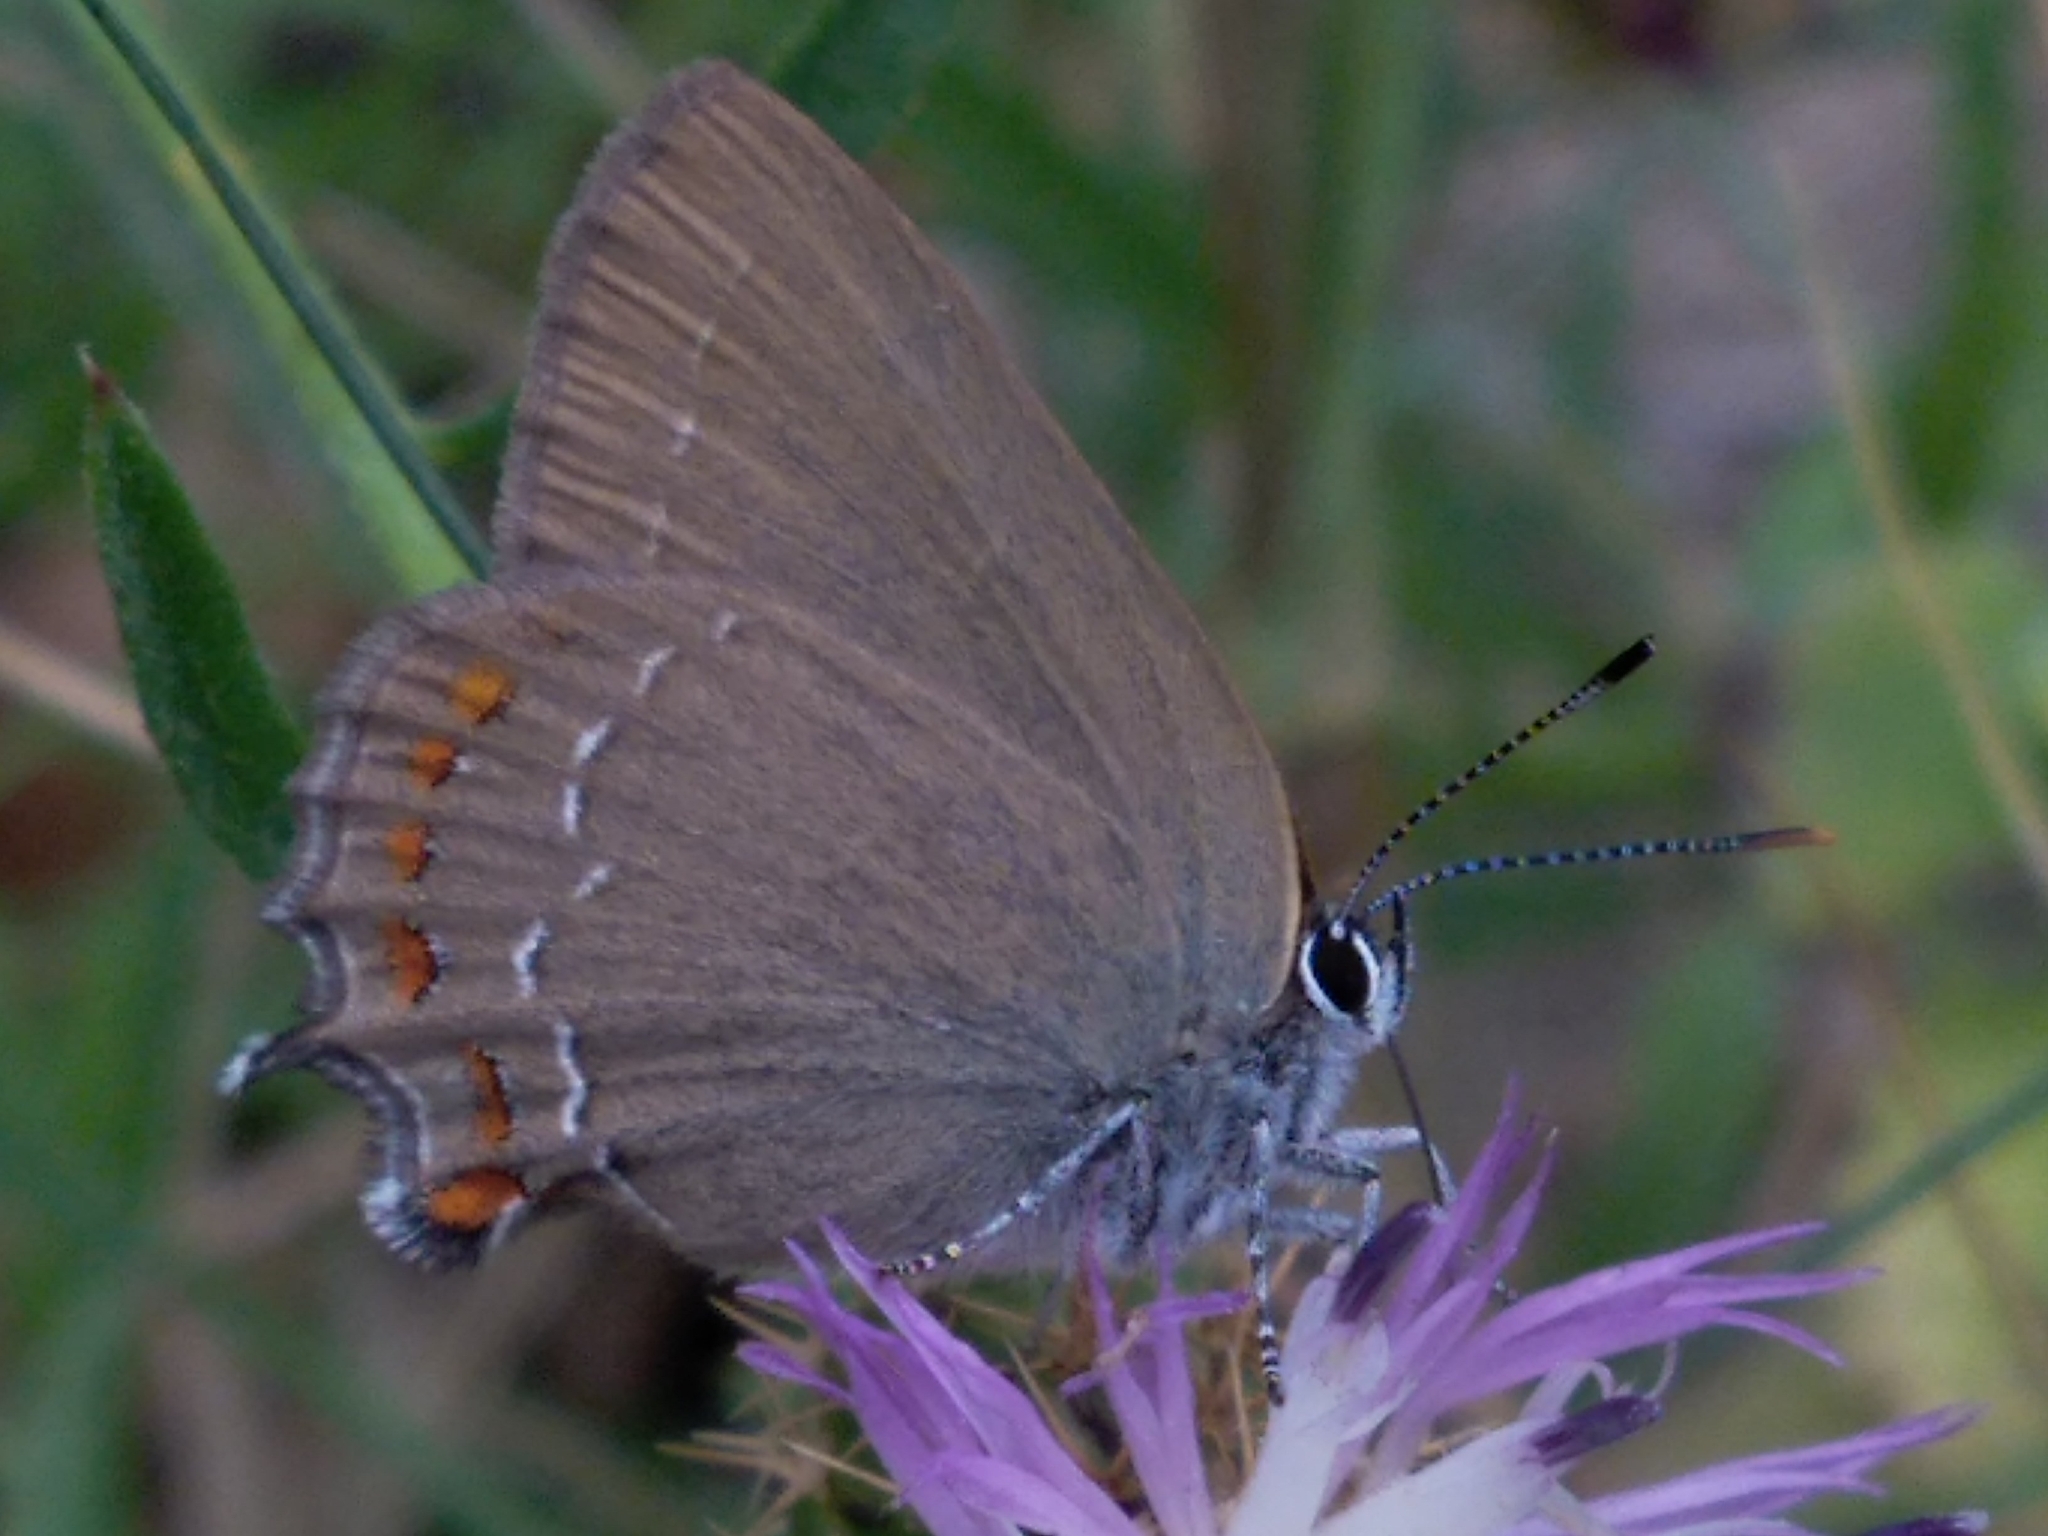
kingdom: Animalia
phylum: Arthropoda
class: Insecta
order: Lepidoptera
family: Lycaenidae
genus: Fixsenia
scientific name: Fixsenia esculi
